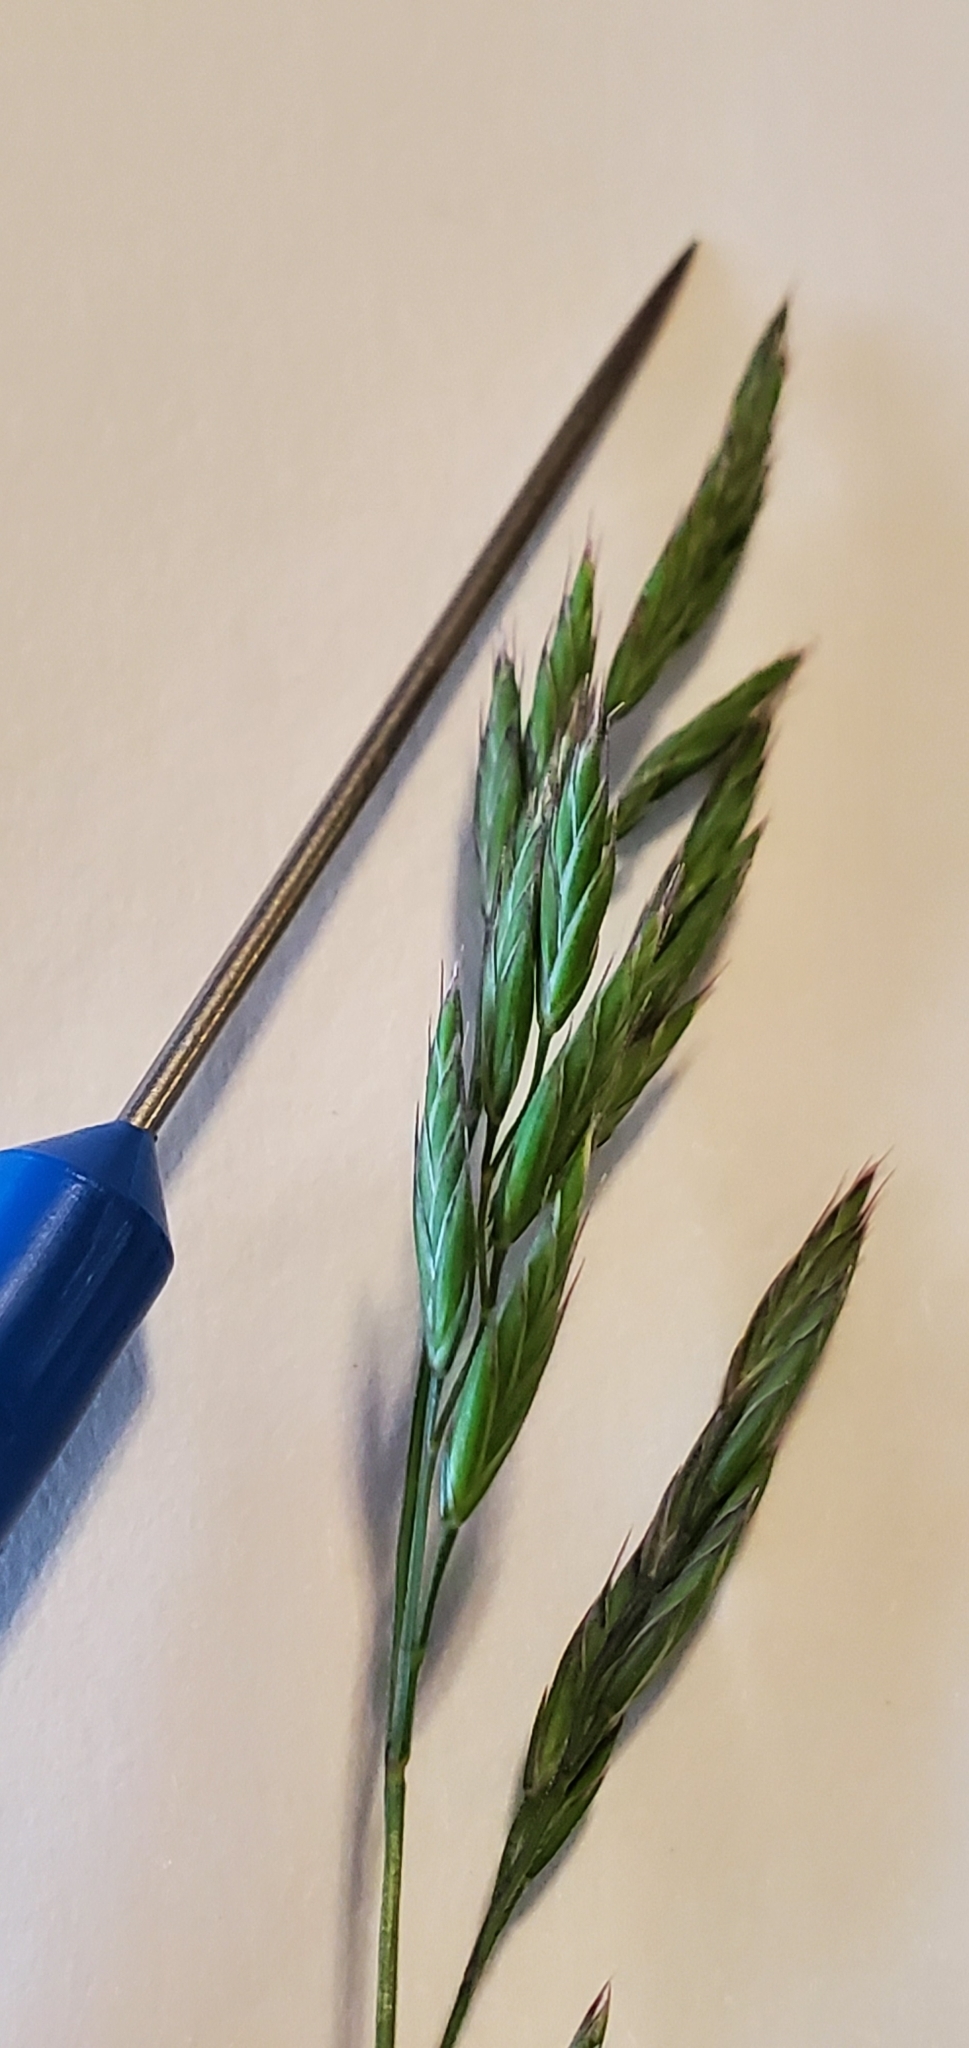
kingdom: Plantae
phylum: Tracheophyta
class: Liliopsida
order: Poales
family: Poaceae
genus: Festuca
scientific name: Festuca rubra
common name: Red fescue
